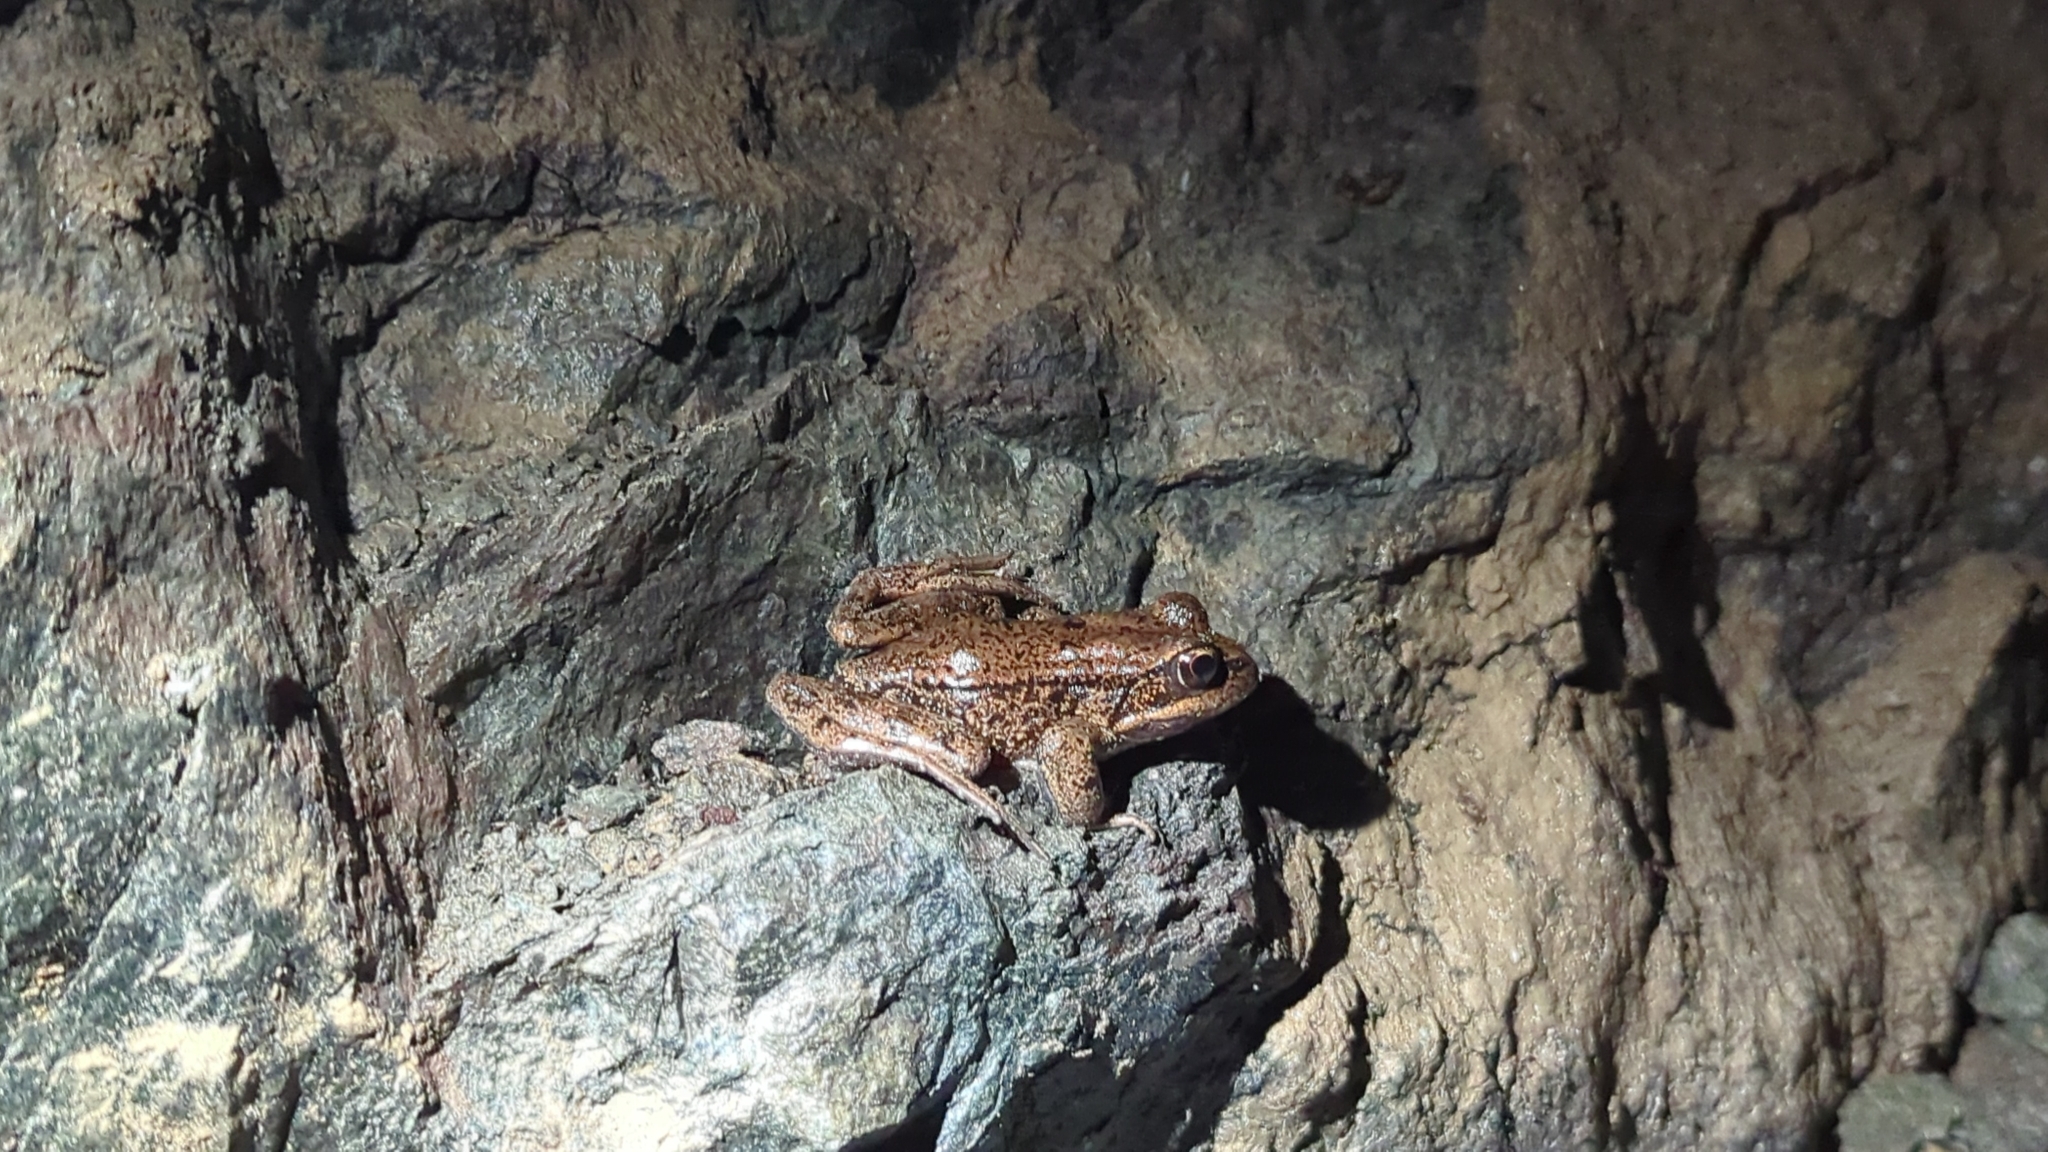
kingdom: Animalia
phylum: Chordata
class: Amphibia
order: Anura
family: Ranidae
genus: Rana
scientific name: Rana aurora
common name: Red-legged frog
